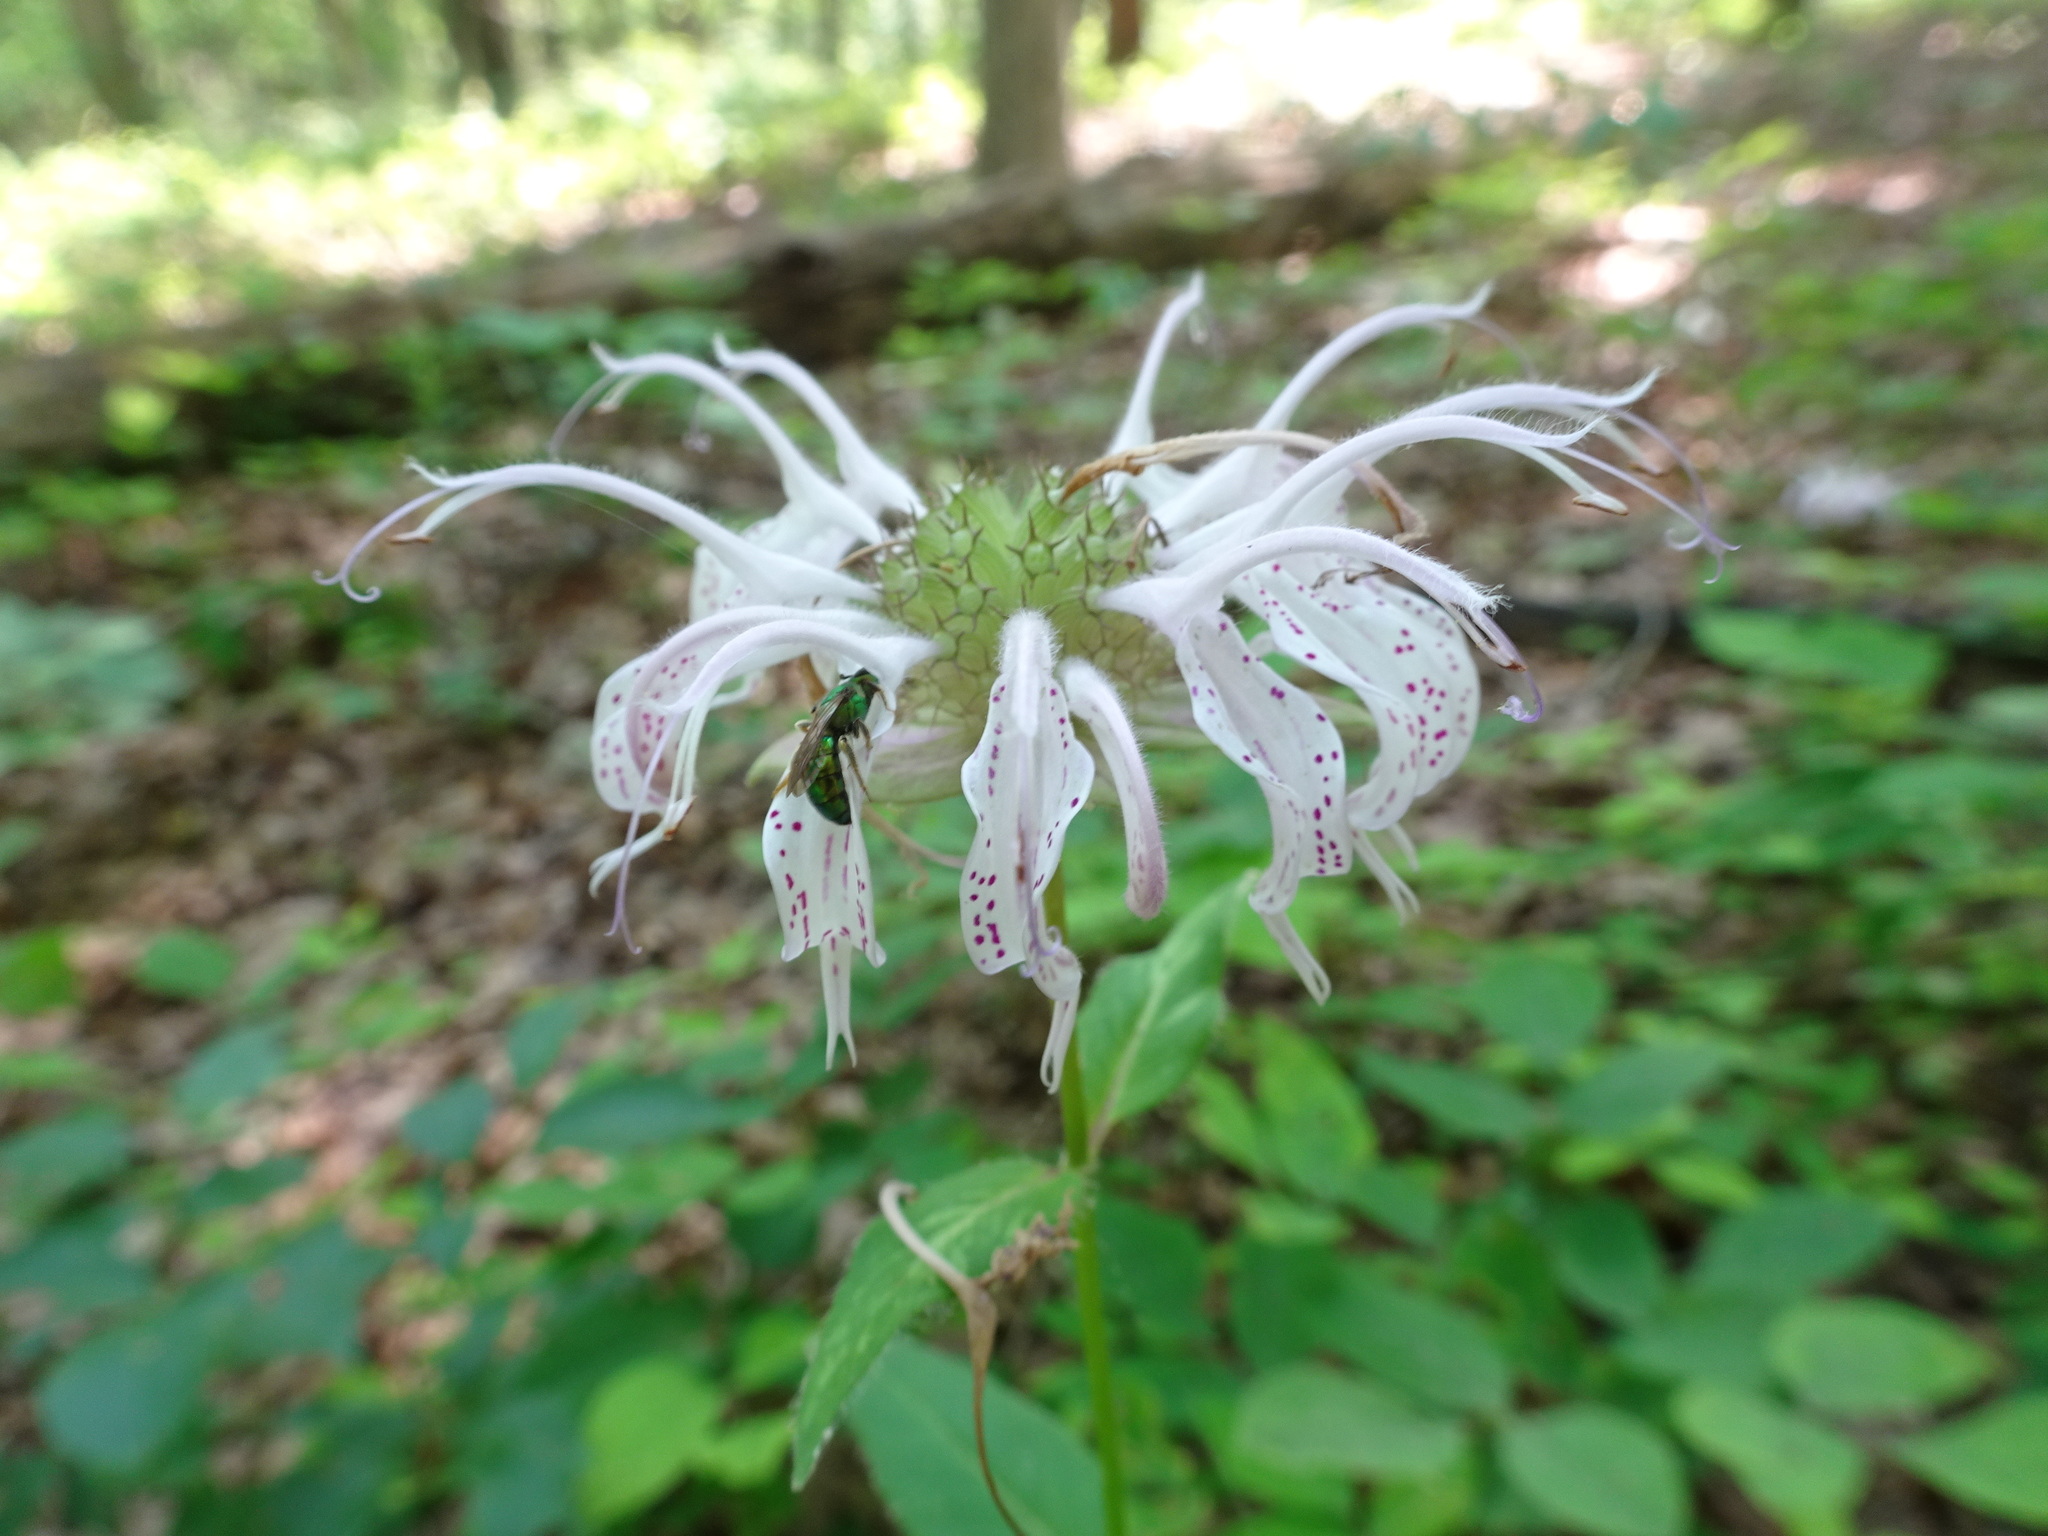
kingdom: Plantae
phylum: Tracheophyta
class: Magnoliopsida
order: Lamiales
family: Lamiaceae
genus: Monarda
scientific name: Monarda bradburiana
